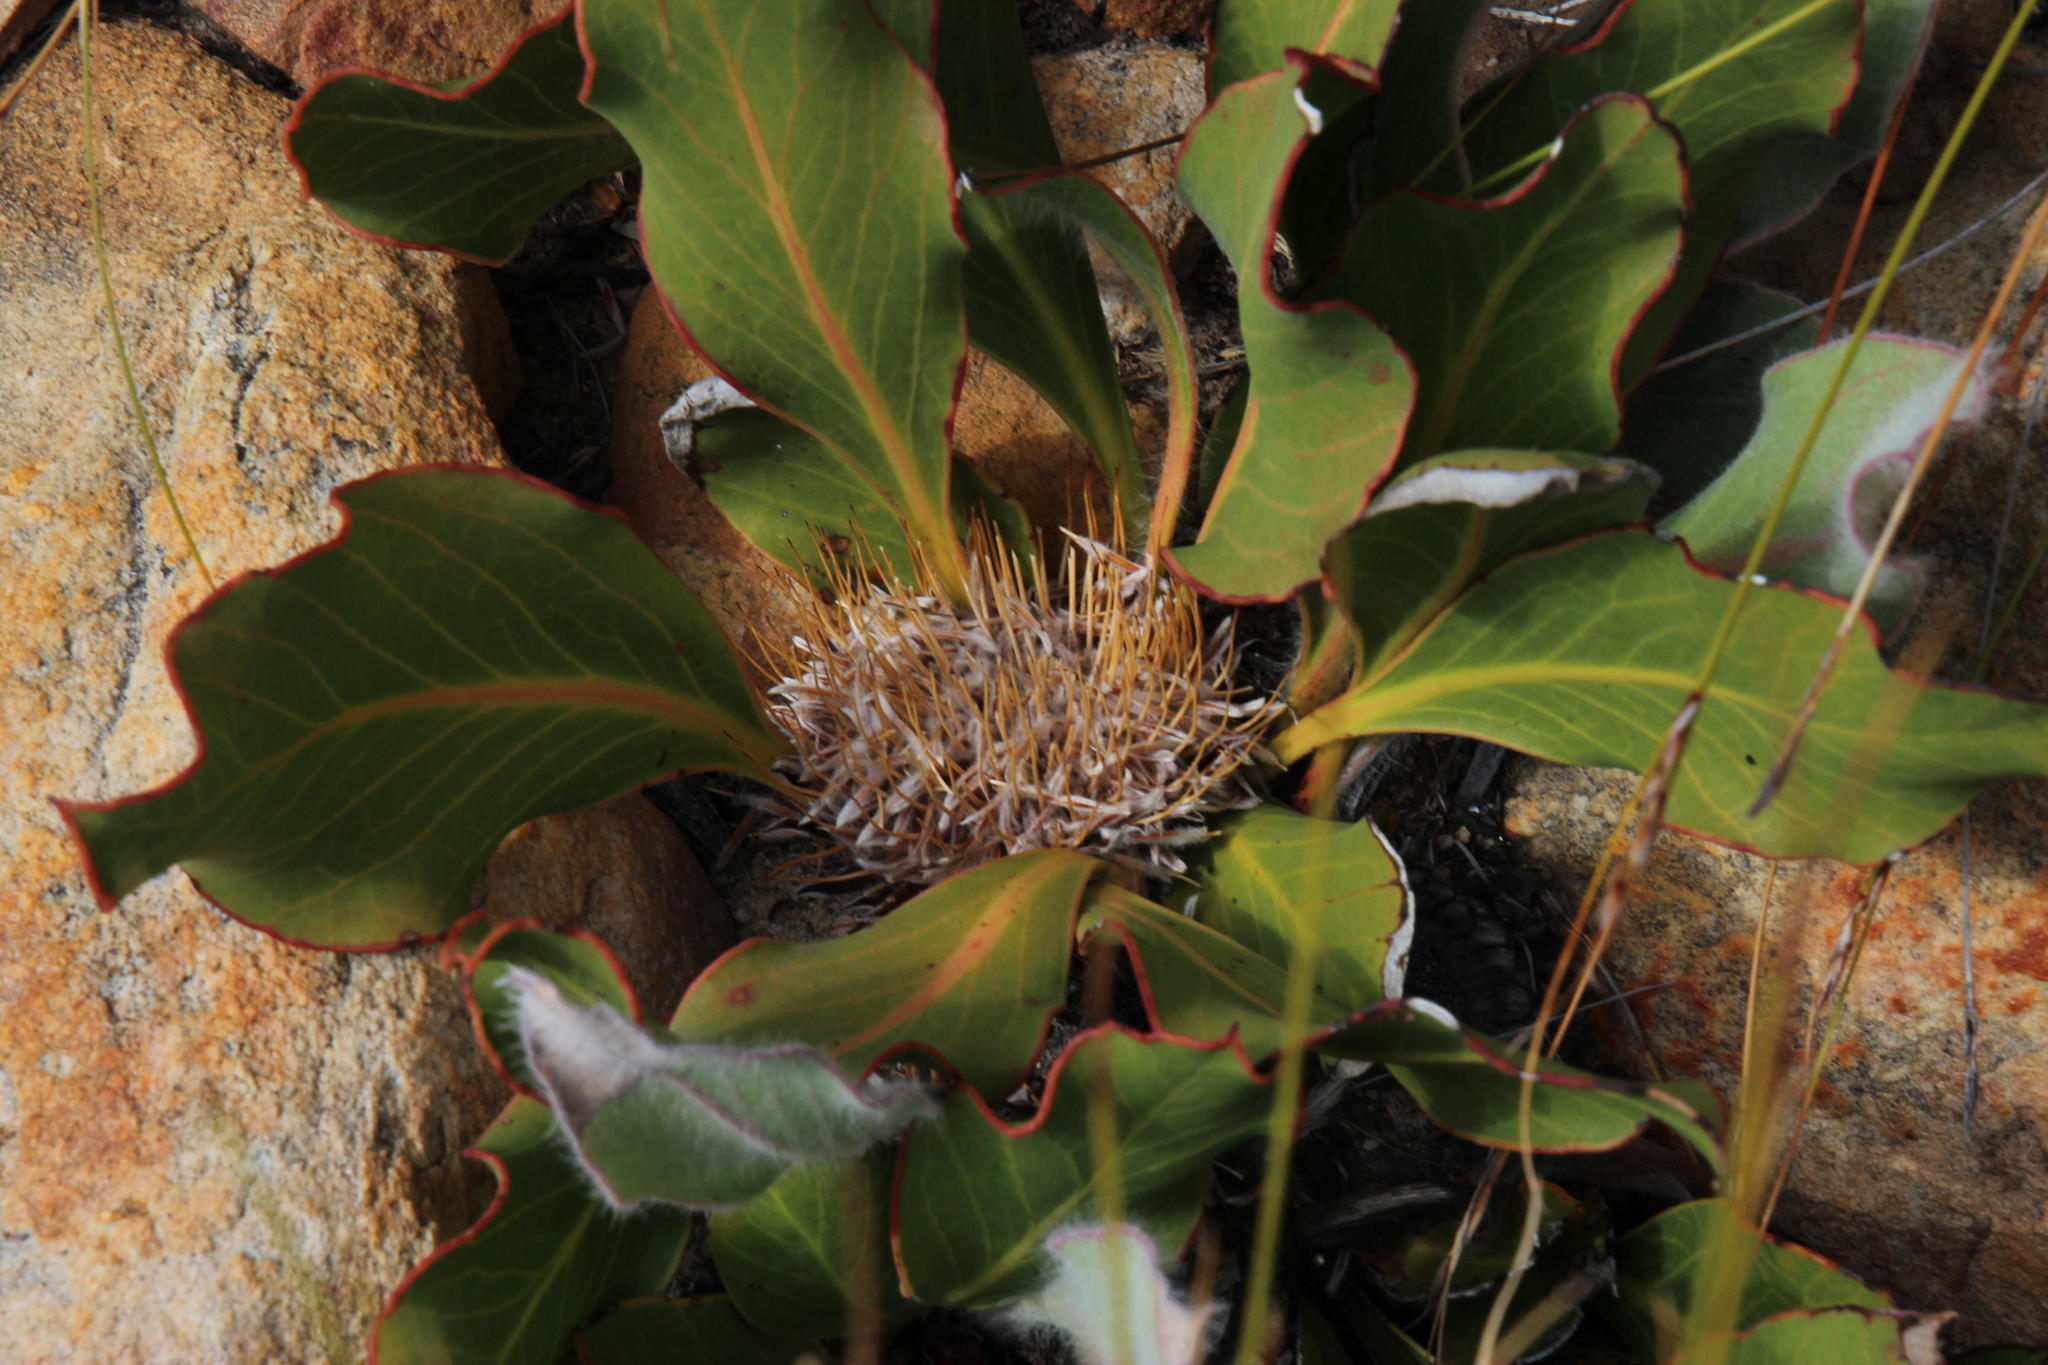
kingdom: Plantae
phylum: Tracheophyta
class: Magnoliopsida
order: Proteales
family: Proteaceae
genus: Protea
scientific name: Protea scolopendriifolia
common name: Harts-tongue-fern sugarbush
